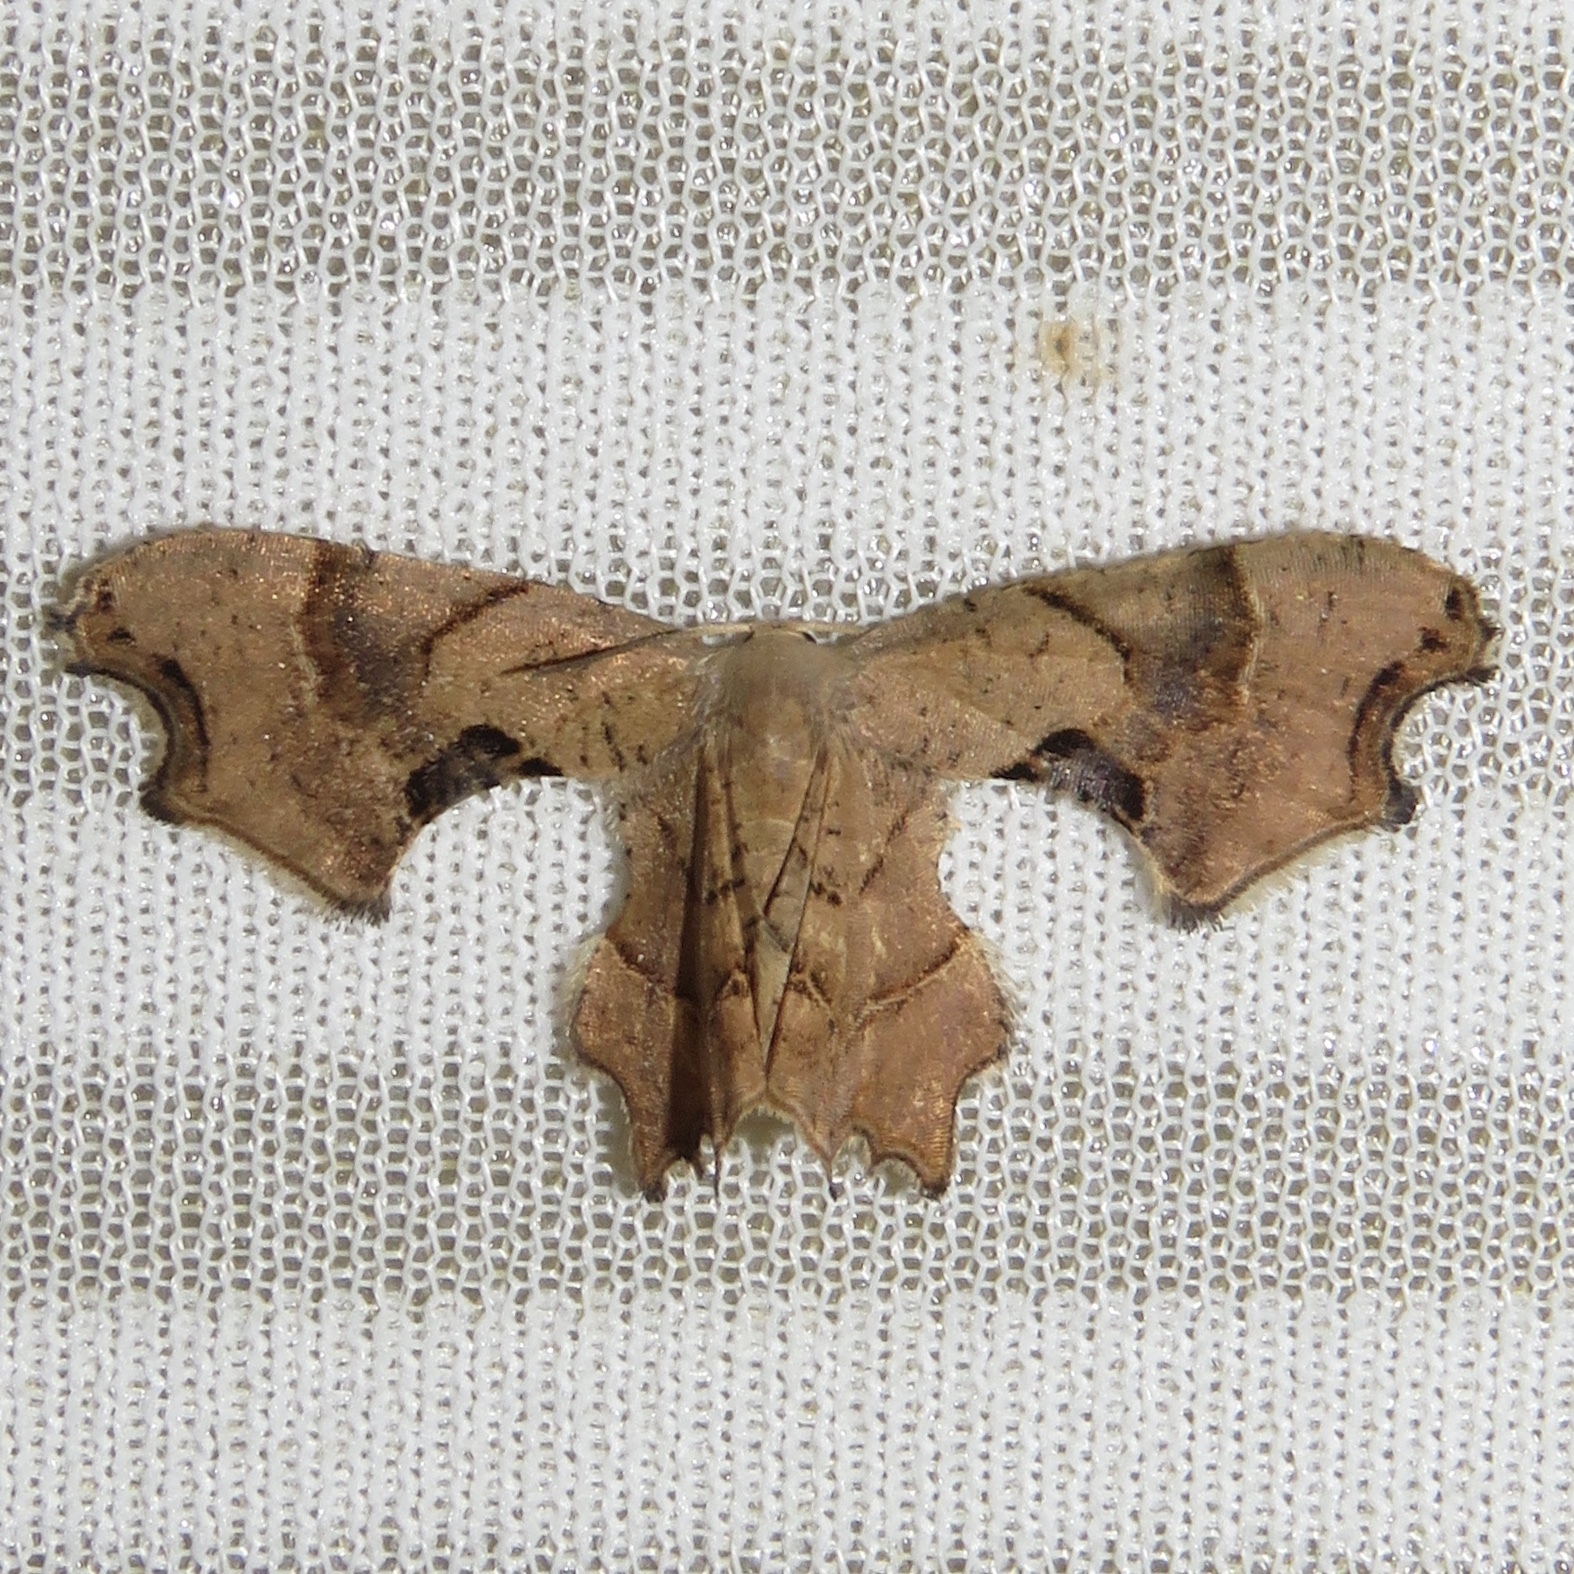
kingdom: Animalia
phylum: Arthropoda
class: Insecta
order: Lepidoptera
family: Uraniidae
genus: Epiplema
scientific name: Epiplema Calledapteryx dryopterata
